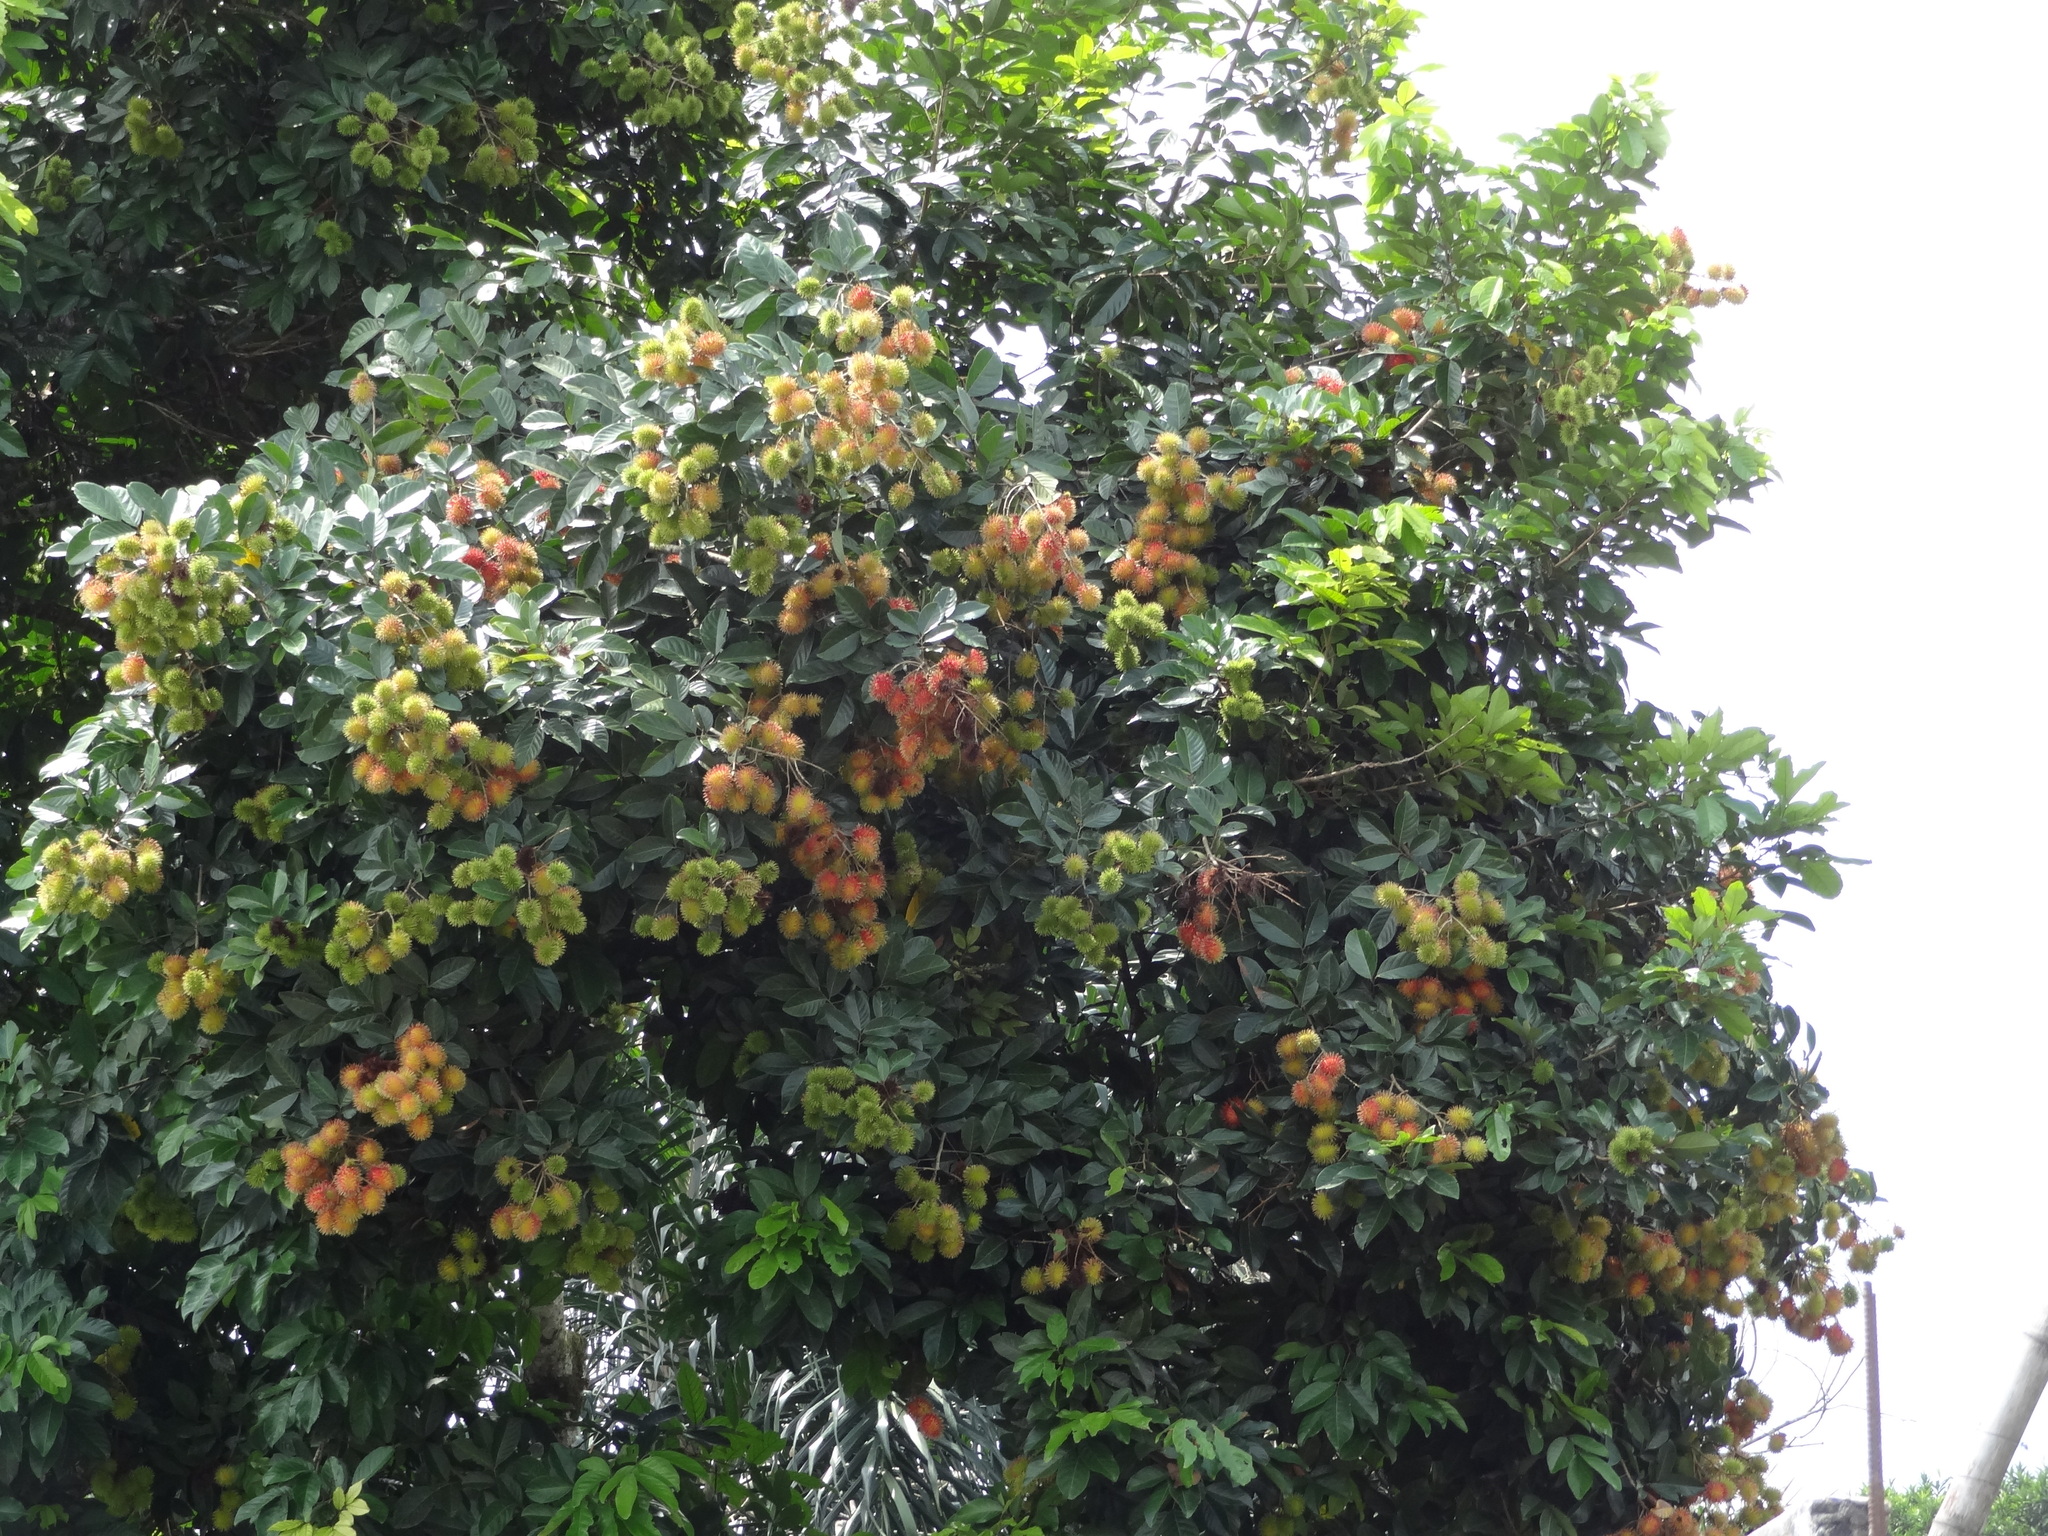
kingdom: Plantae
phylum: Tracheophyta
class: Magnoliopsida
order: Sapindales
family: Sapindaceae
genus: Nephelium
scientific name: Nephelium lappaceum
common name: Rambutan
